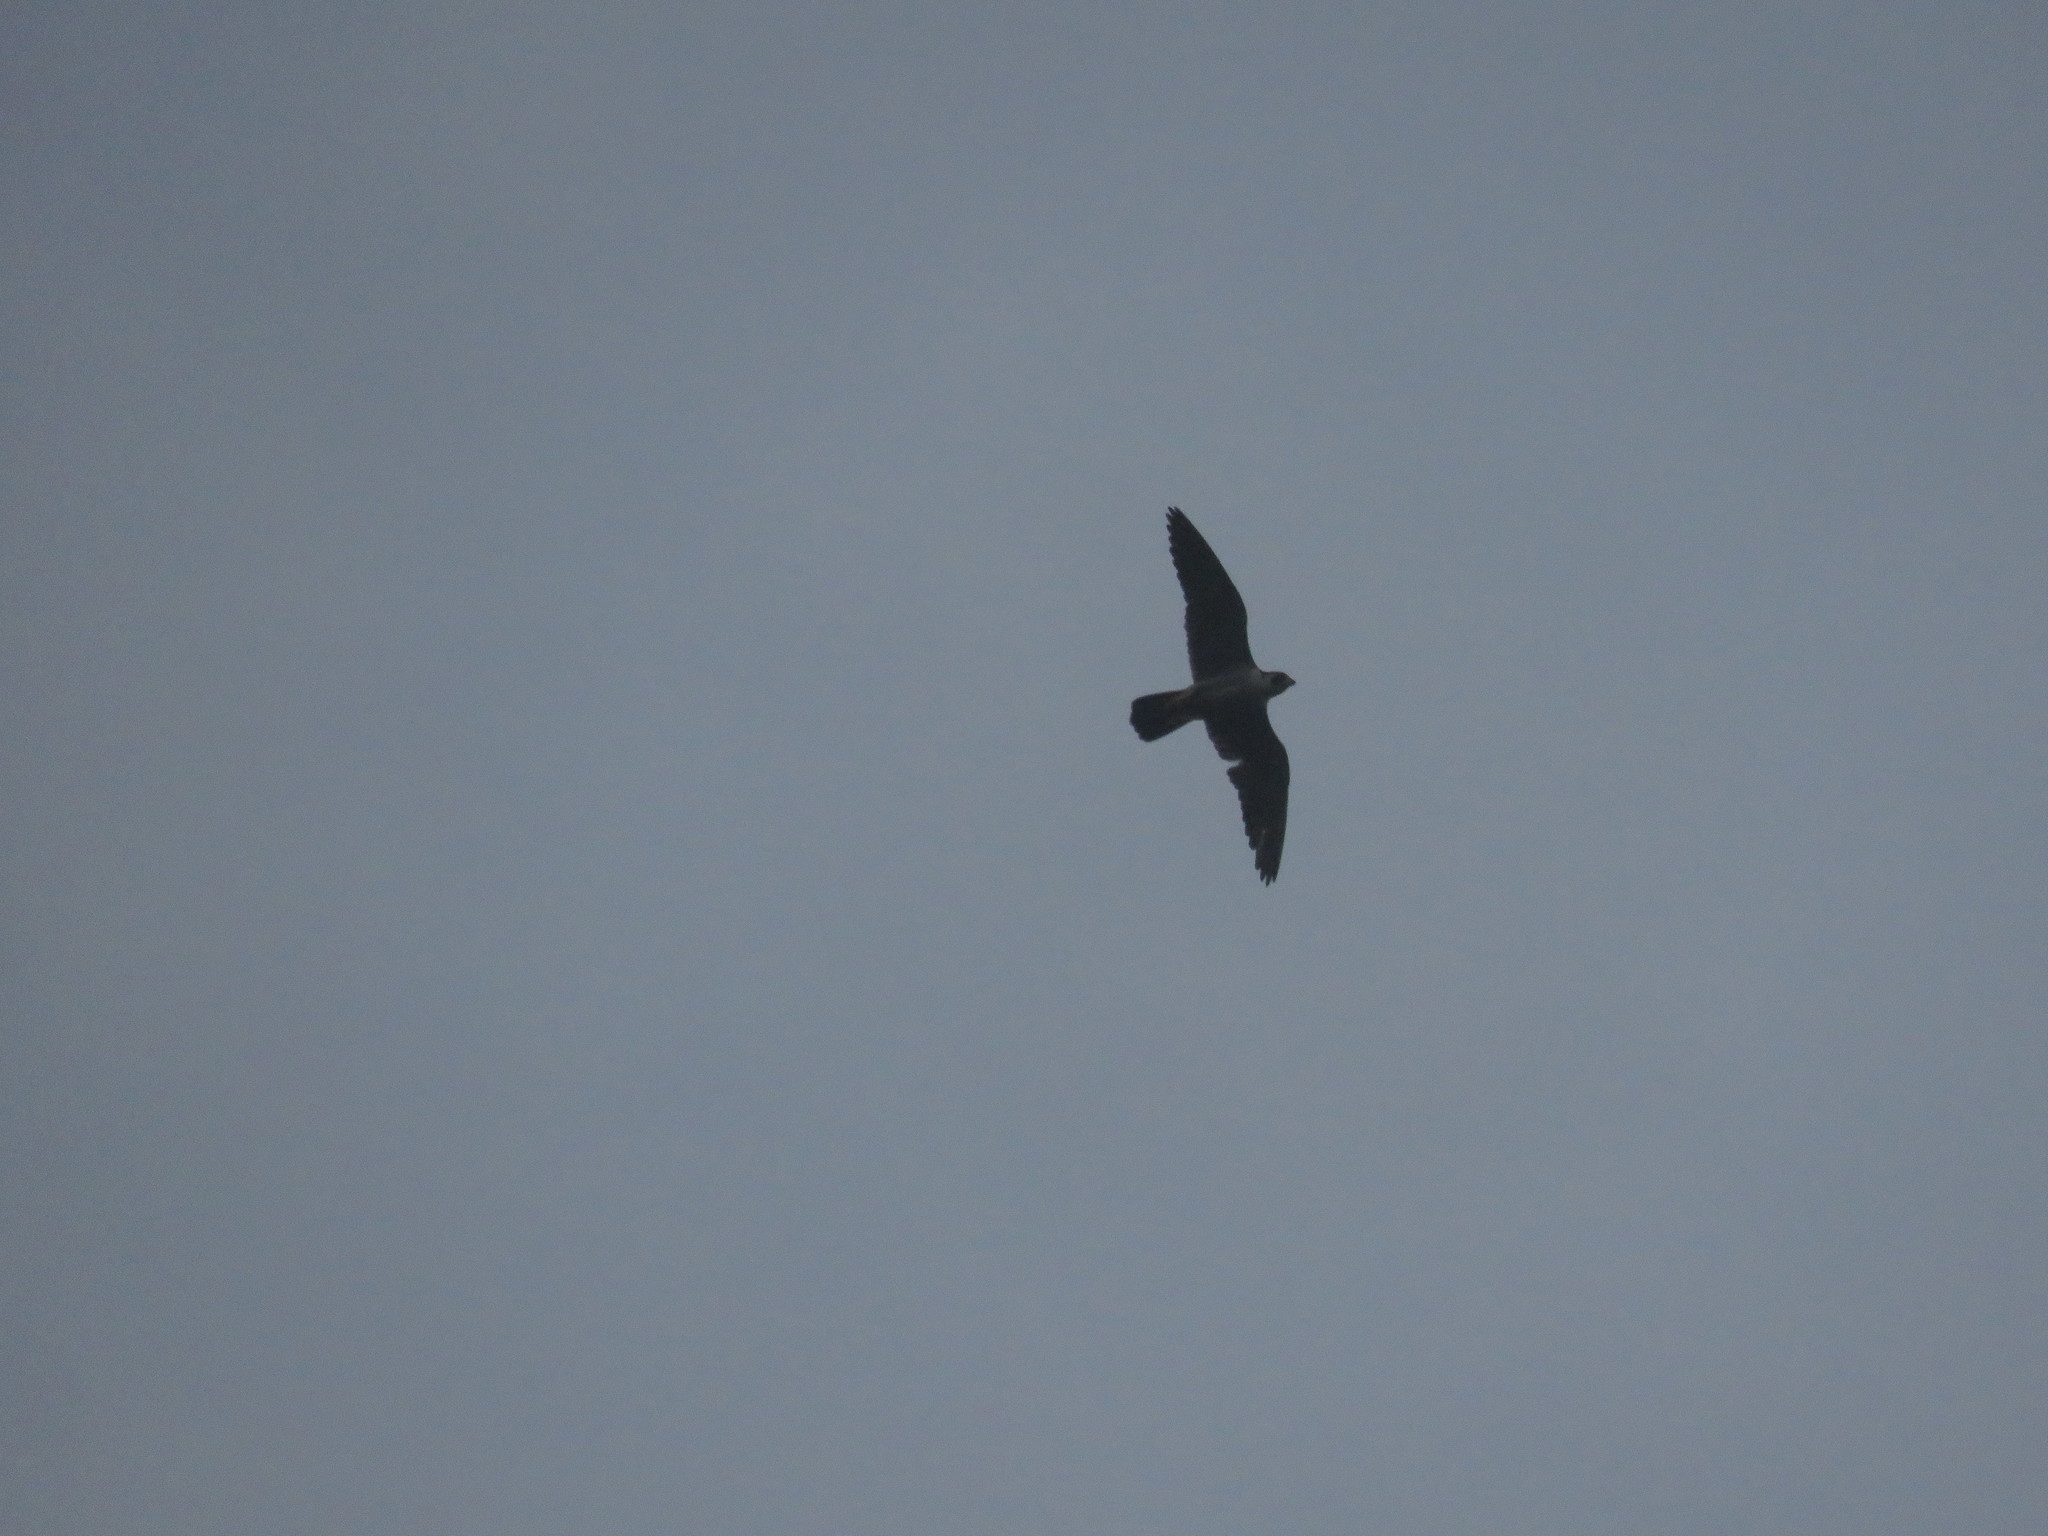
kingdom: Animalia
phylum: Chordata
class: Aves
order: Falconiformes
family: Falconidae
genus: Falco
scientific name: Falco peregrinus
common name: Peregrine falcon
